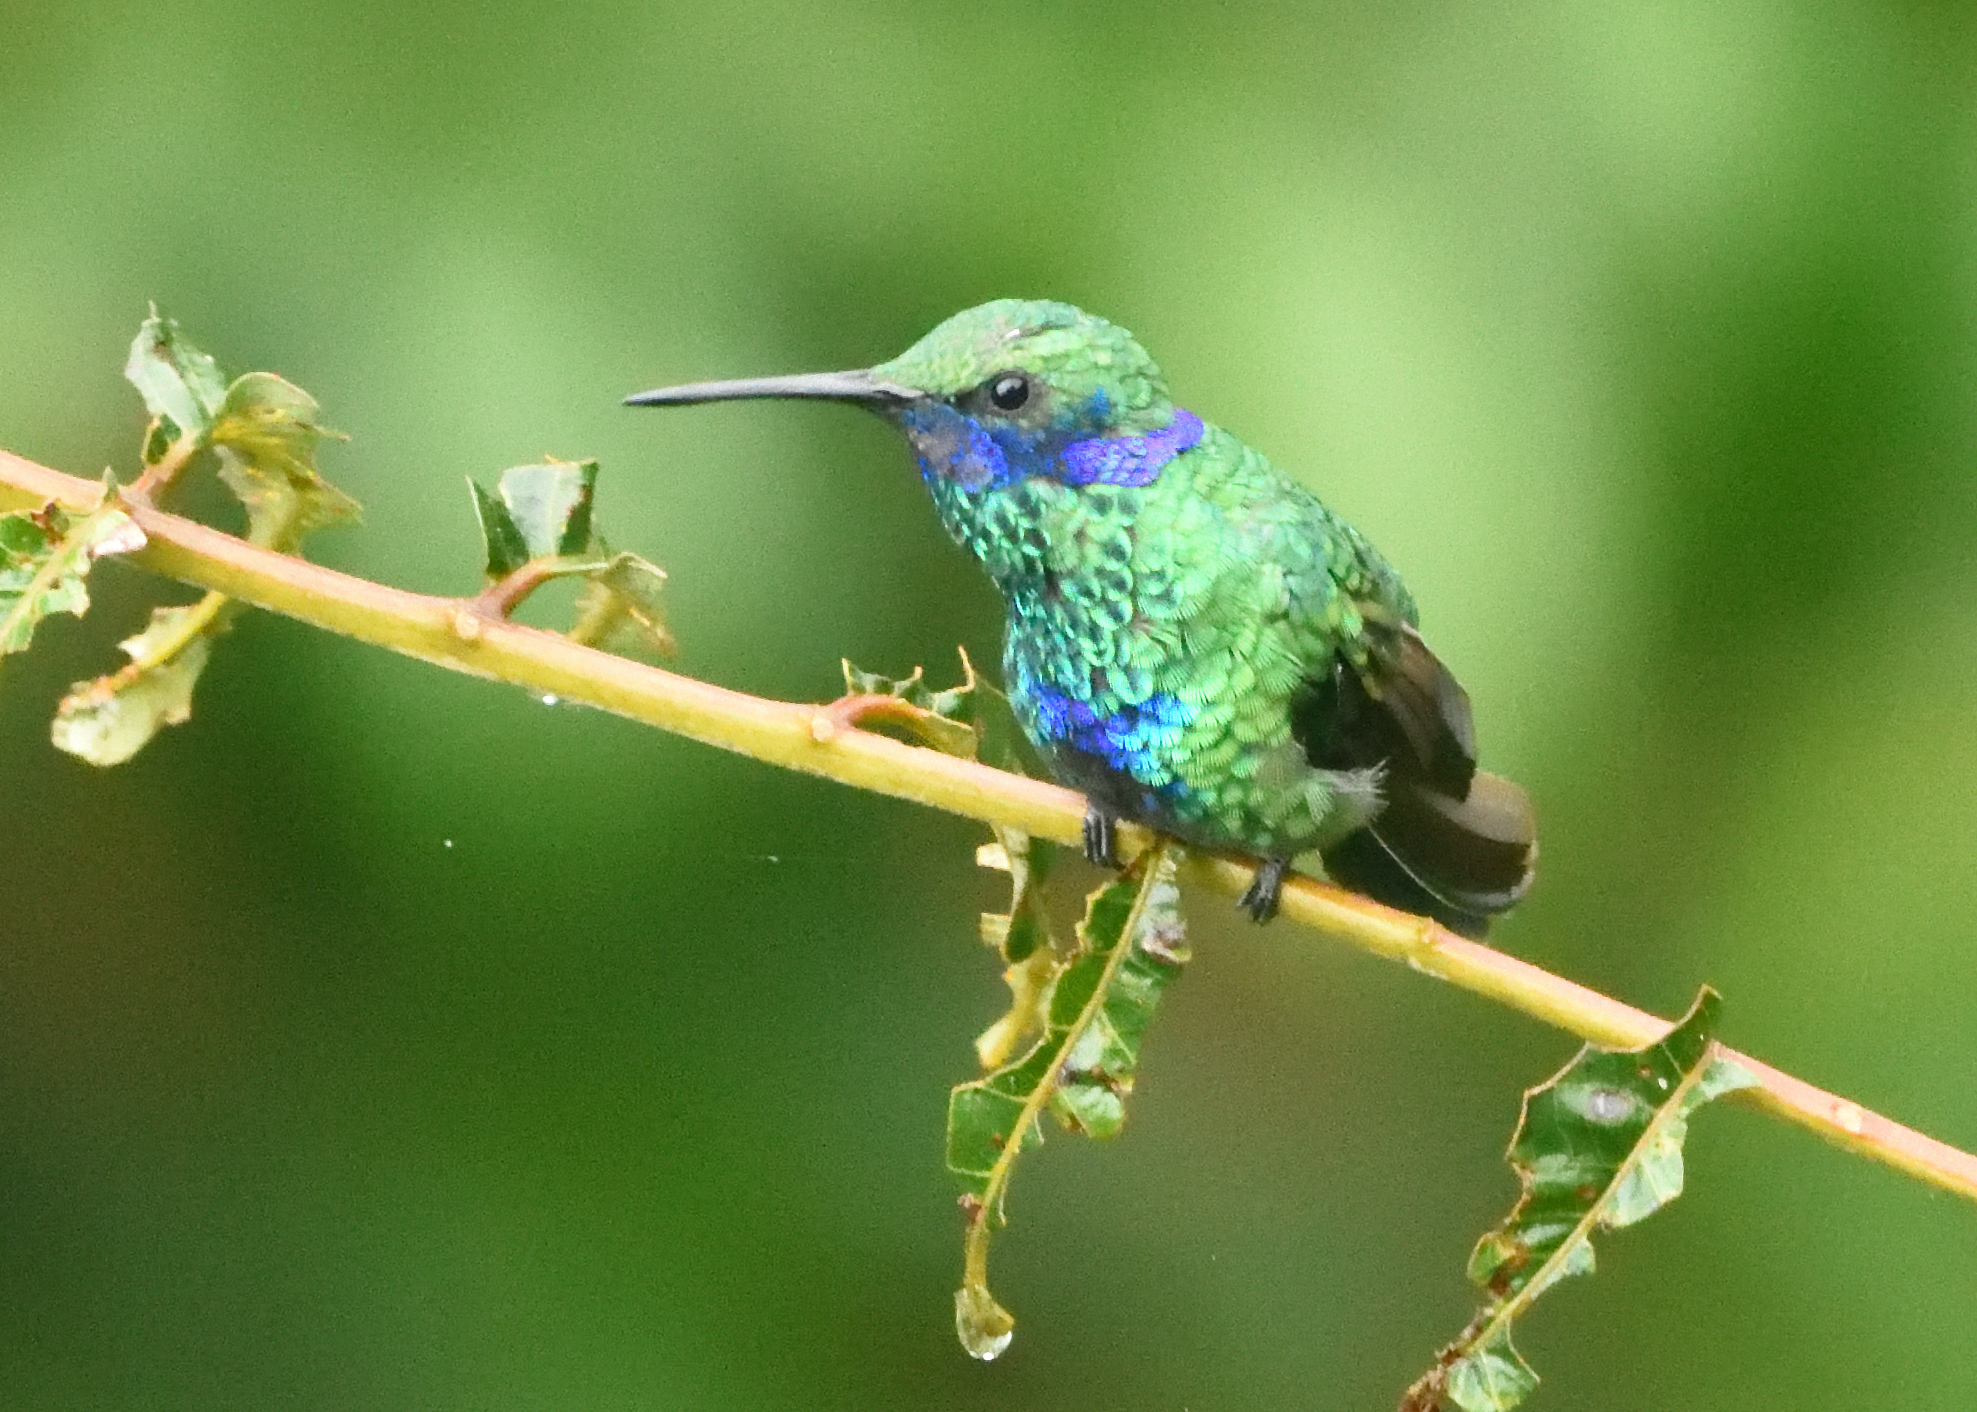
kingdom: Animalia
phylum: Chordata
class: Aves
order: Apodiformes
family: Trochilidae
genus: Colibri
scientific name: Colibri coruscans
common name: Sparkling violetear
